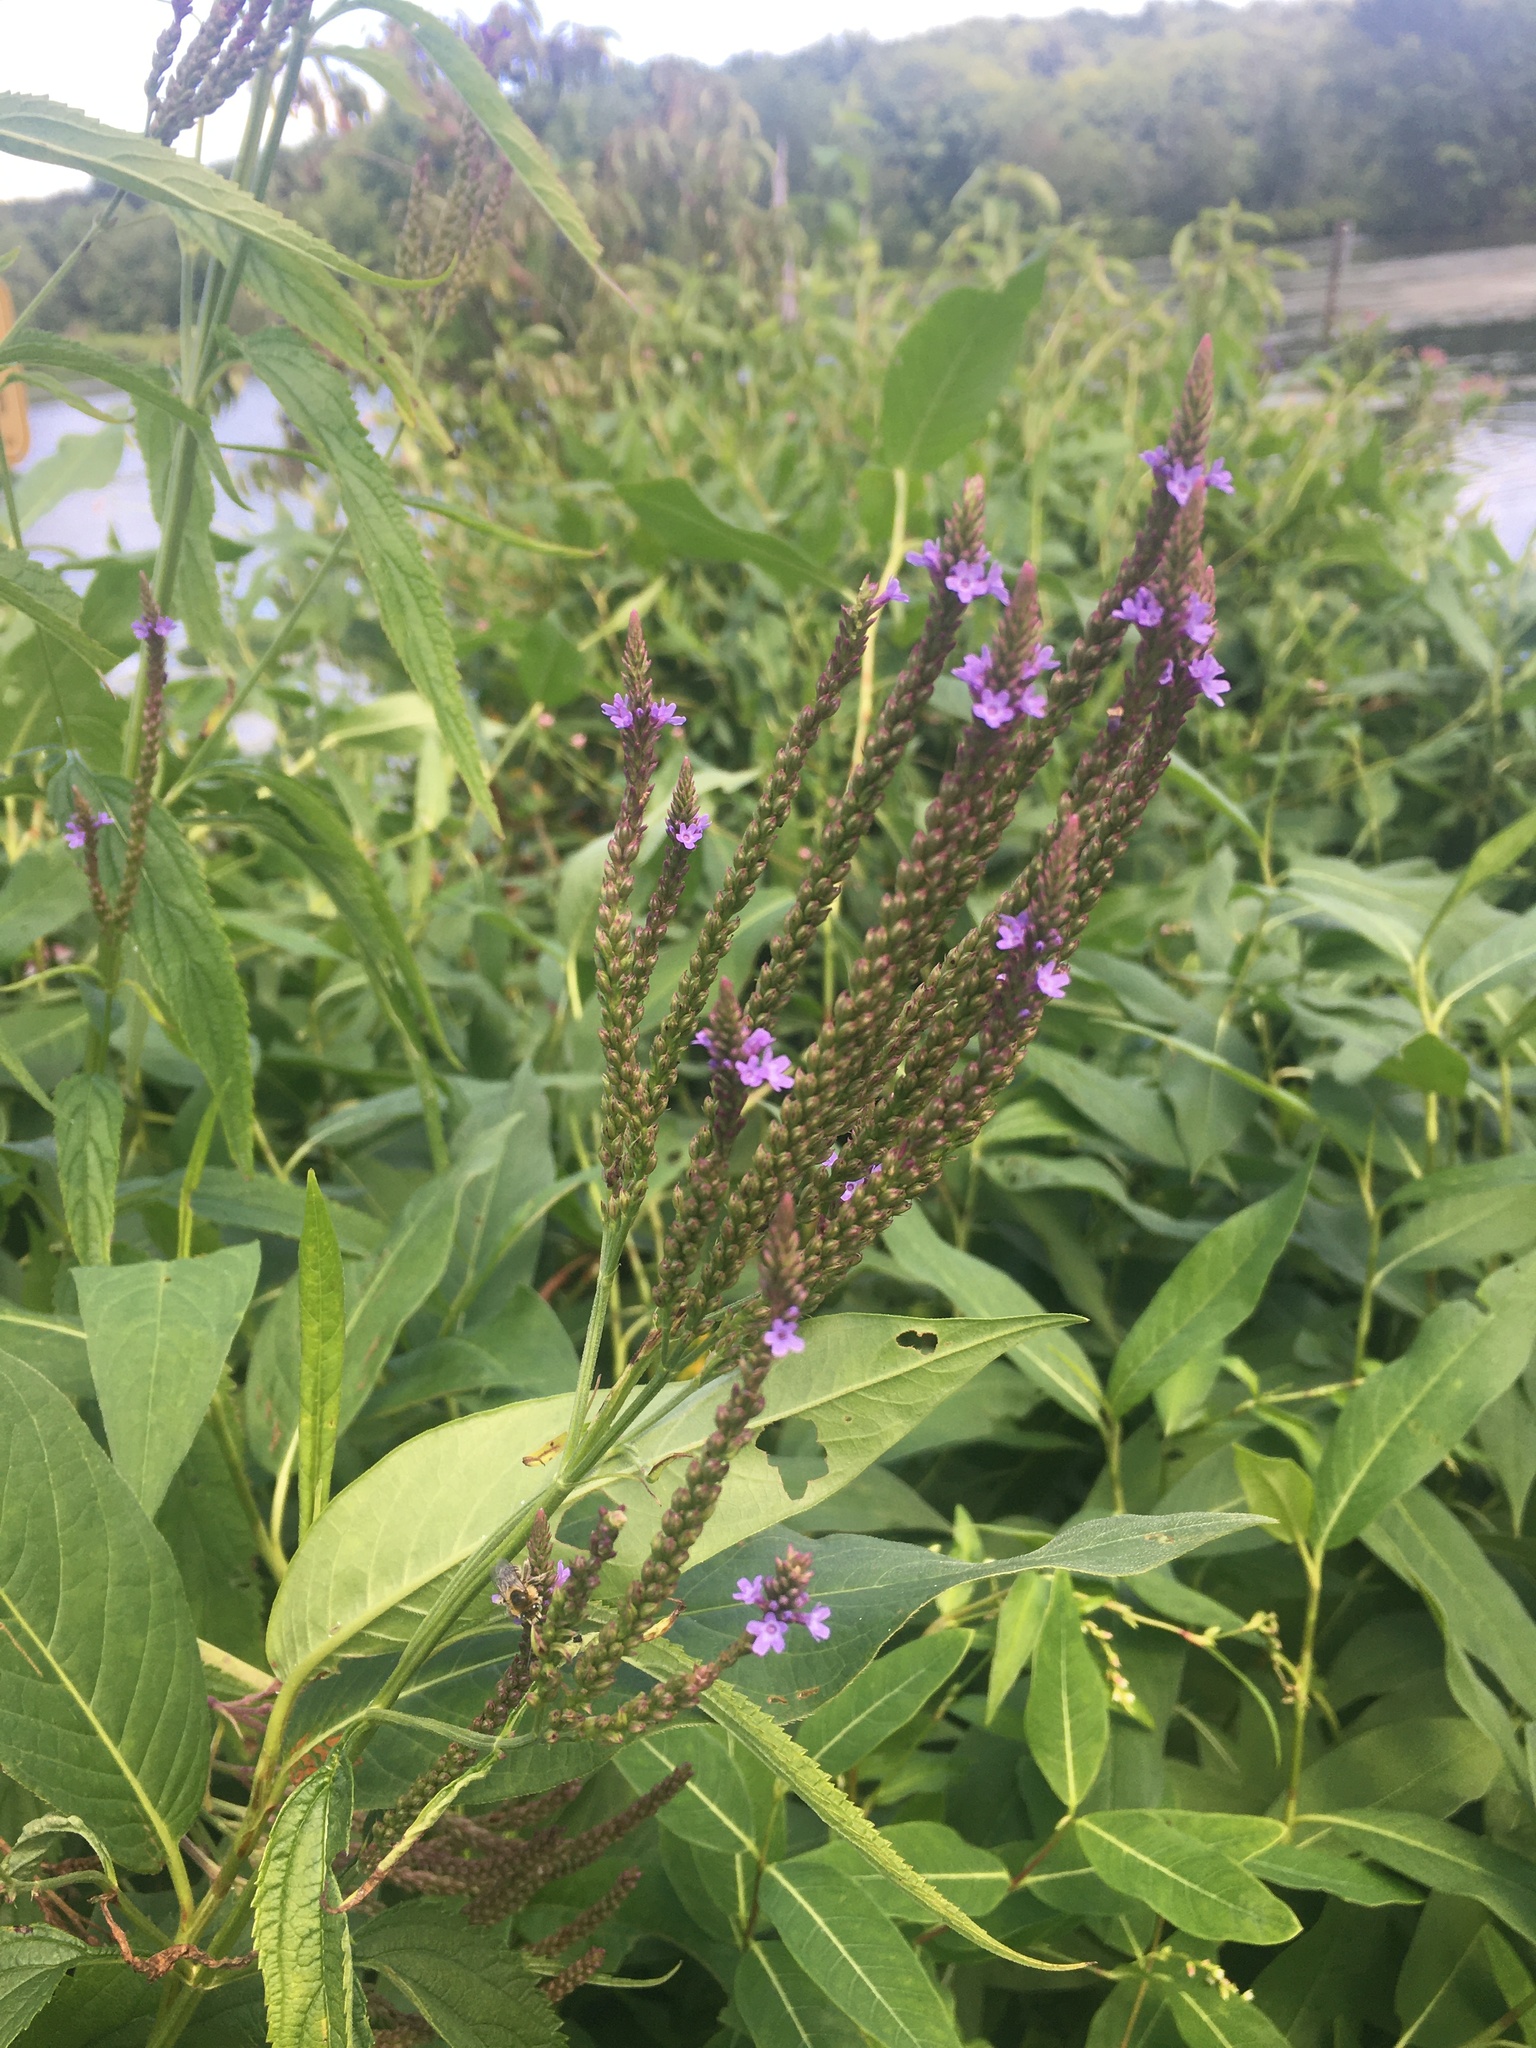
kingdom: Plantae
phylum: Tracheophyta
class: Magnoliopsida
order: Lamiales
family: Verbenaceae
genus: Verbena
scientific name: Verbena hastata
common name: American blue vervain
